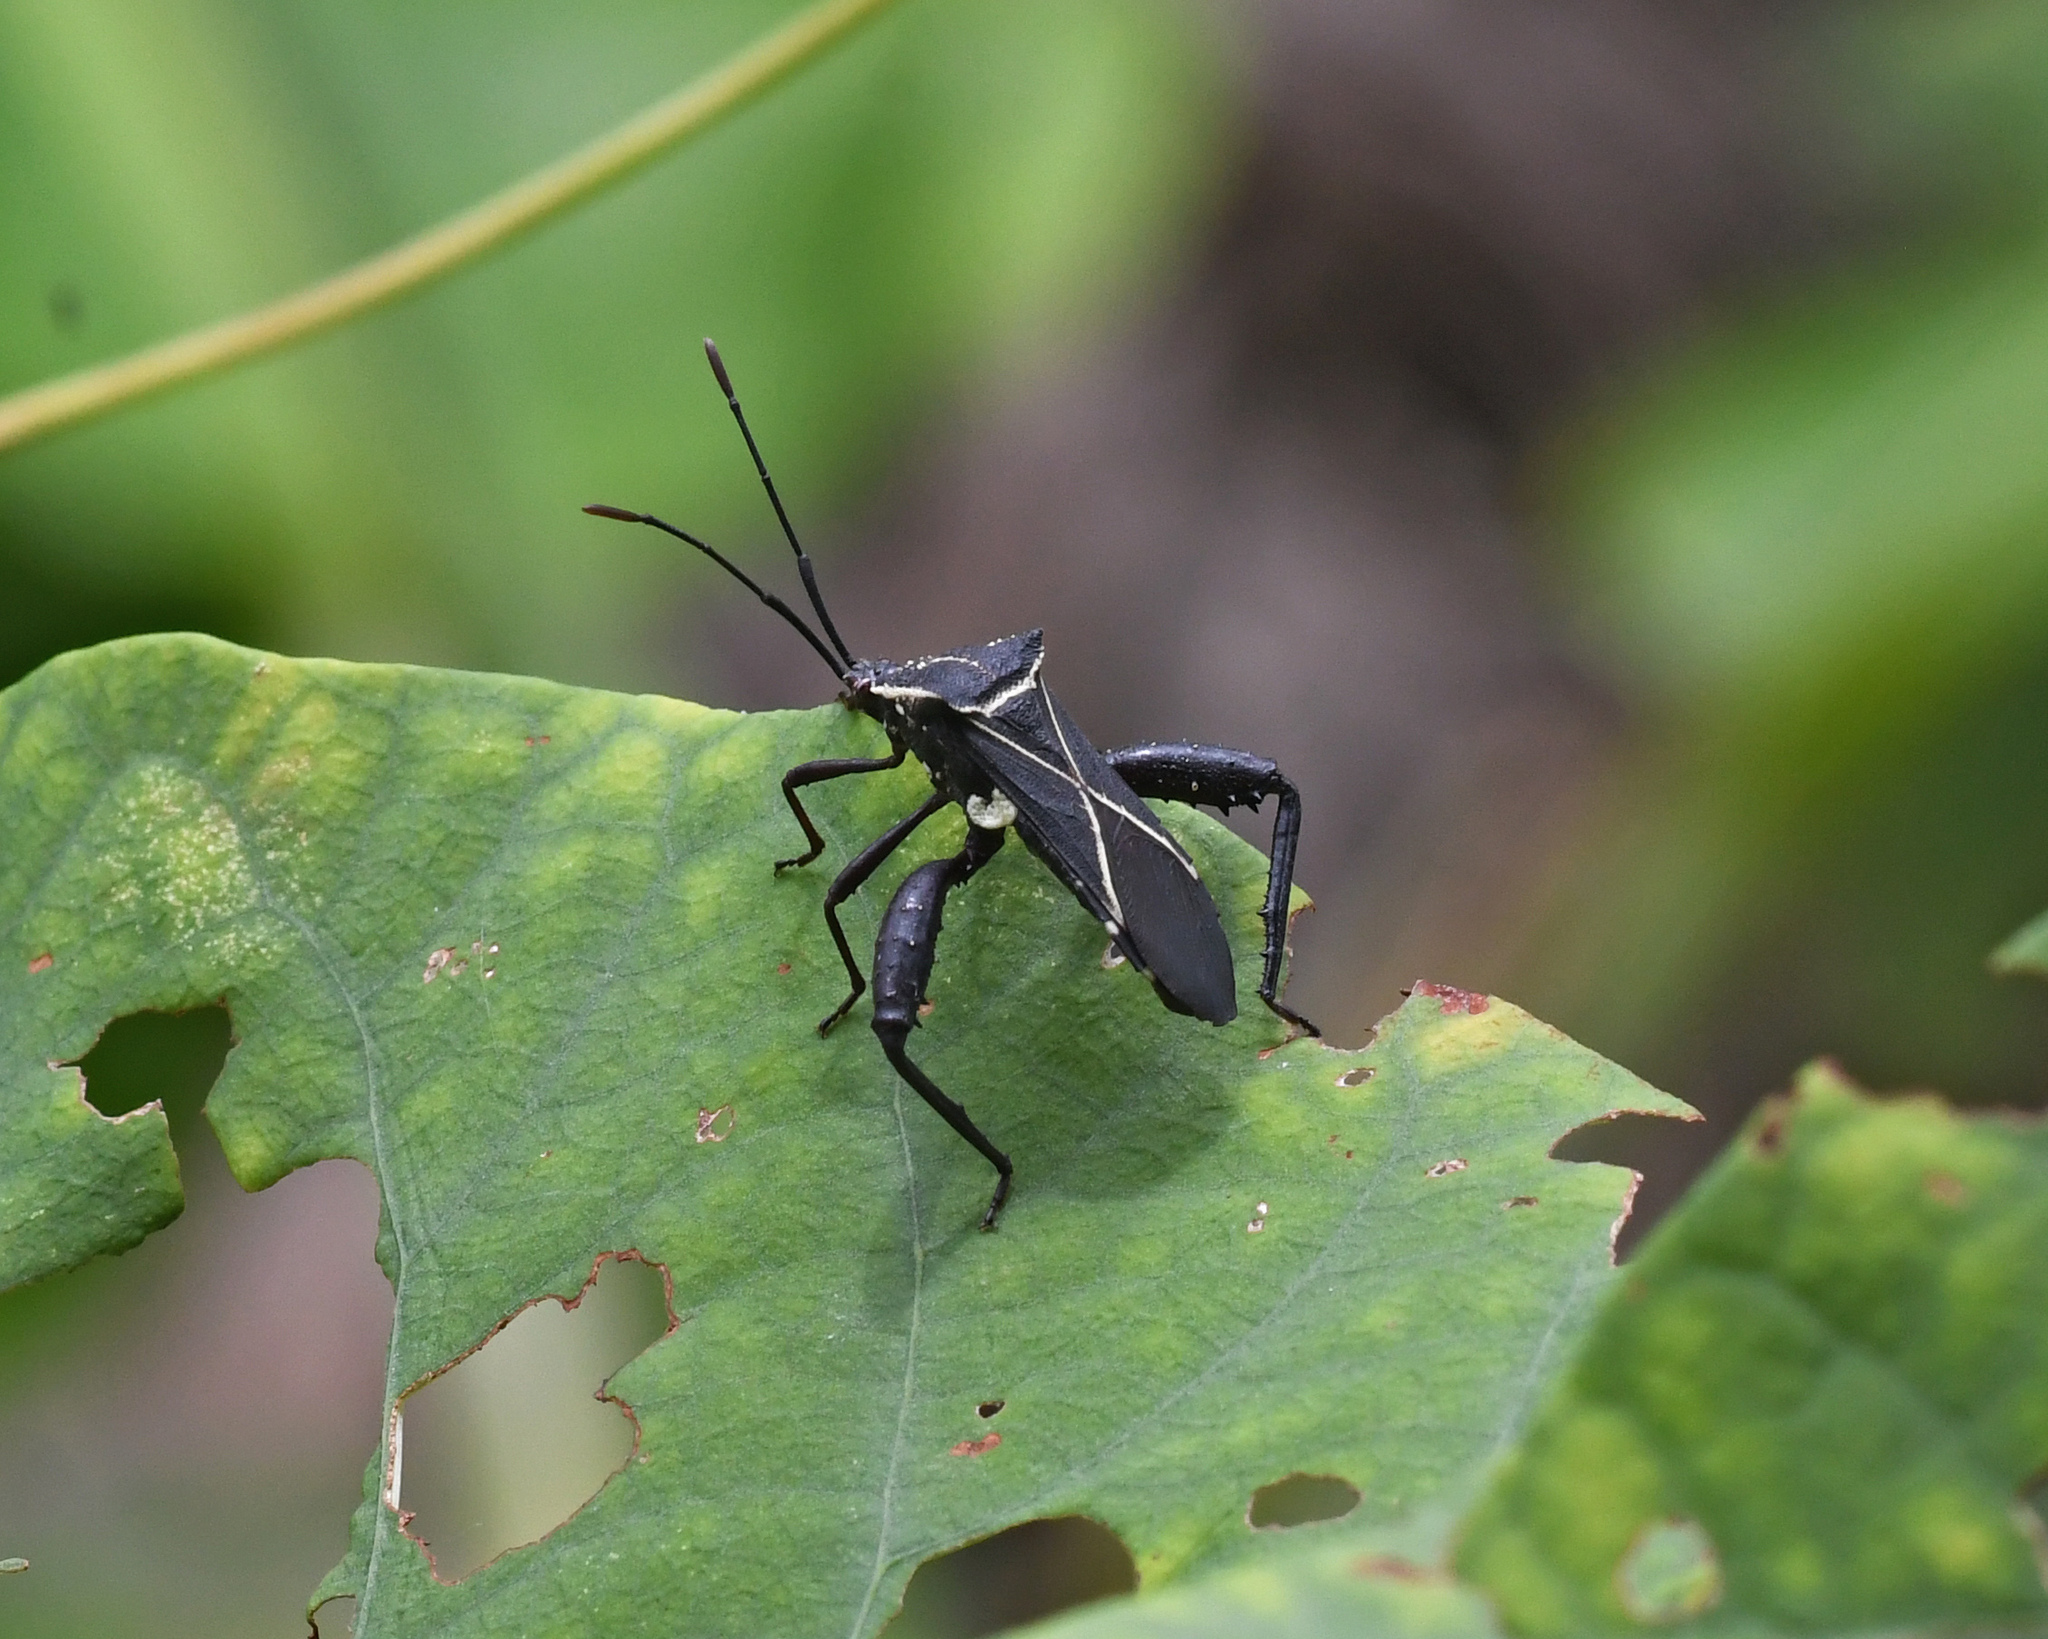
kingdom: Animalia
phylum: Arthropoda
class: Insecta
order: Hemiptera
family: Coreidae
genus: Acanthocerus
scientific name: Acanthocerus crucifer
